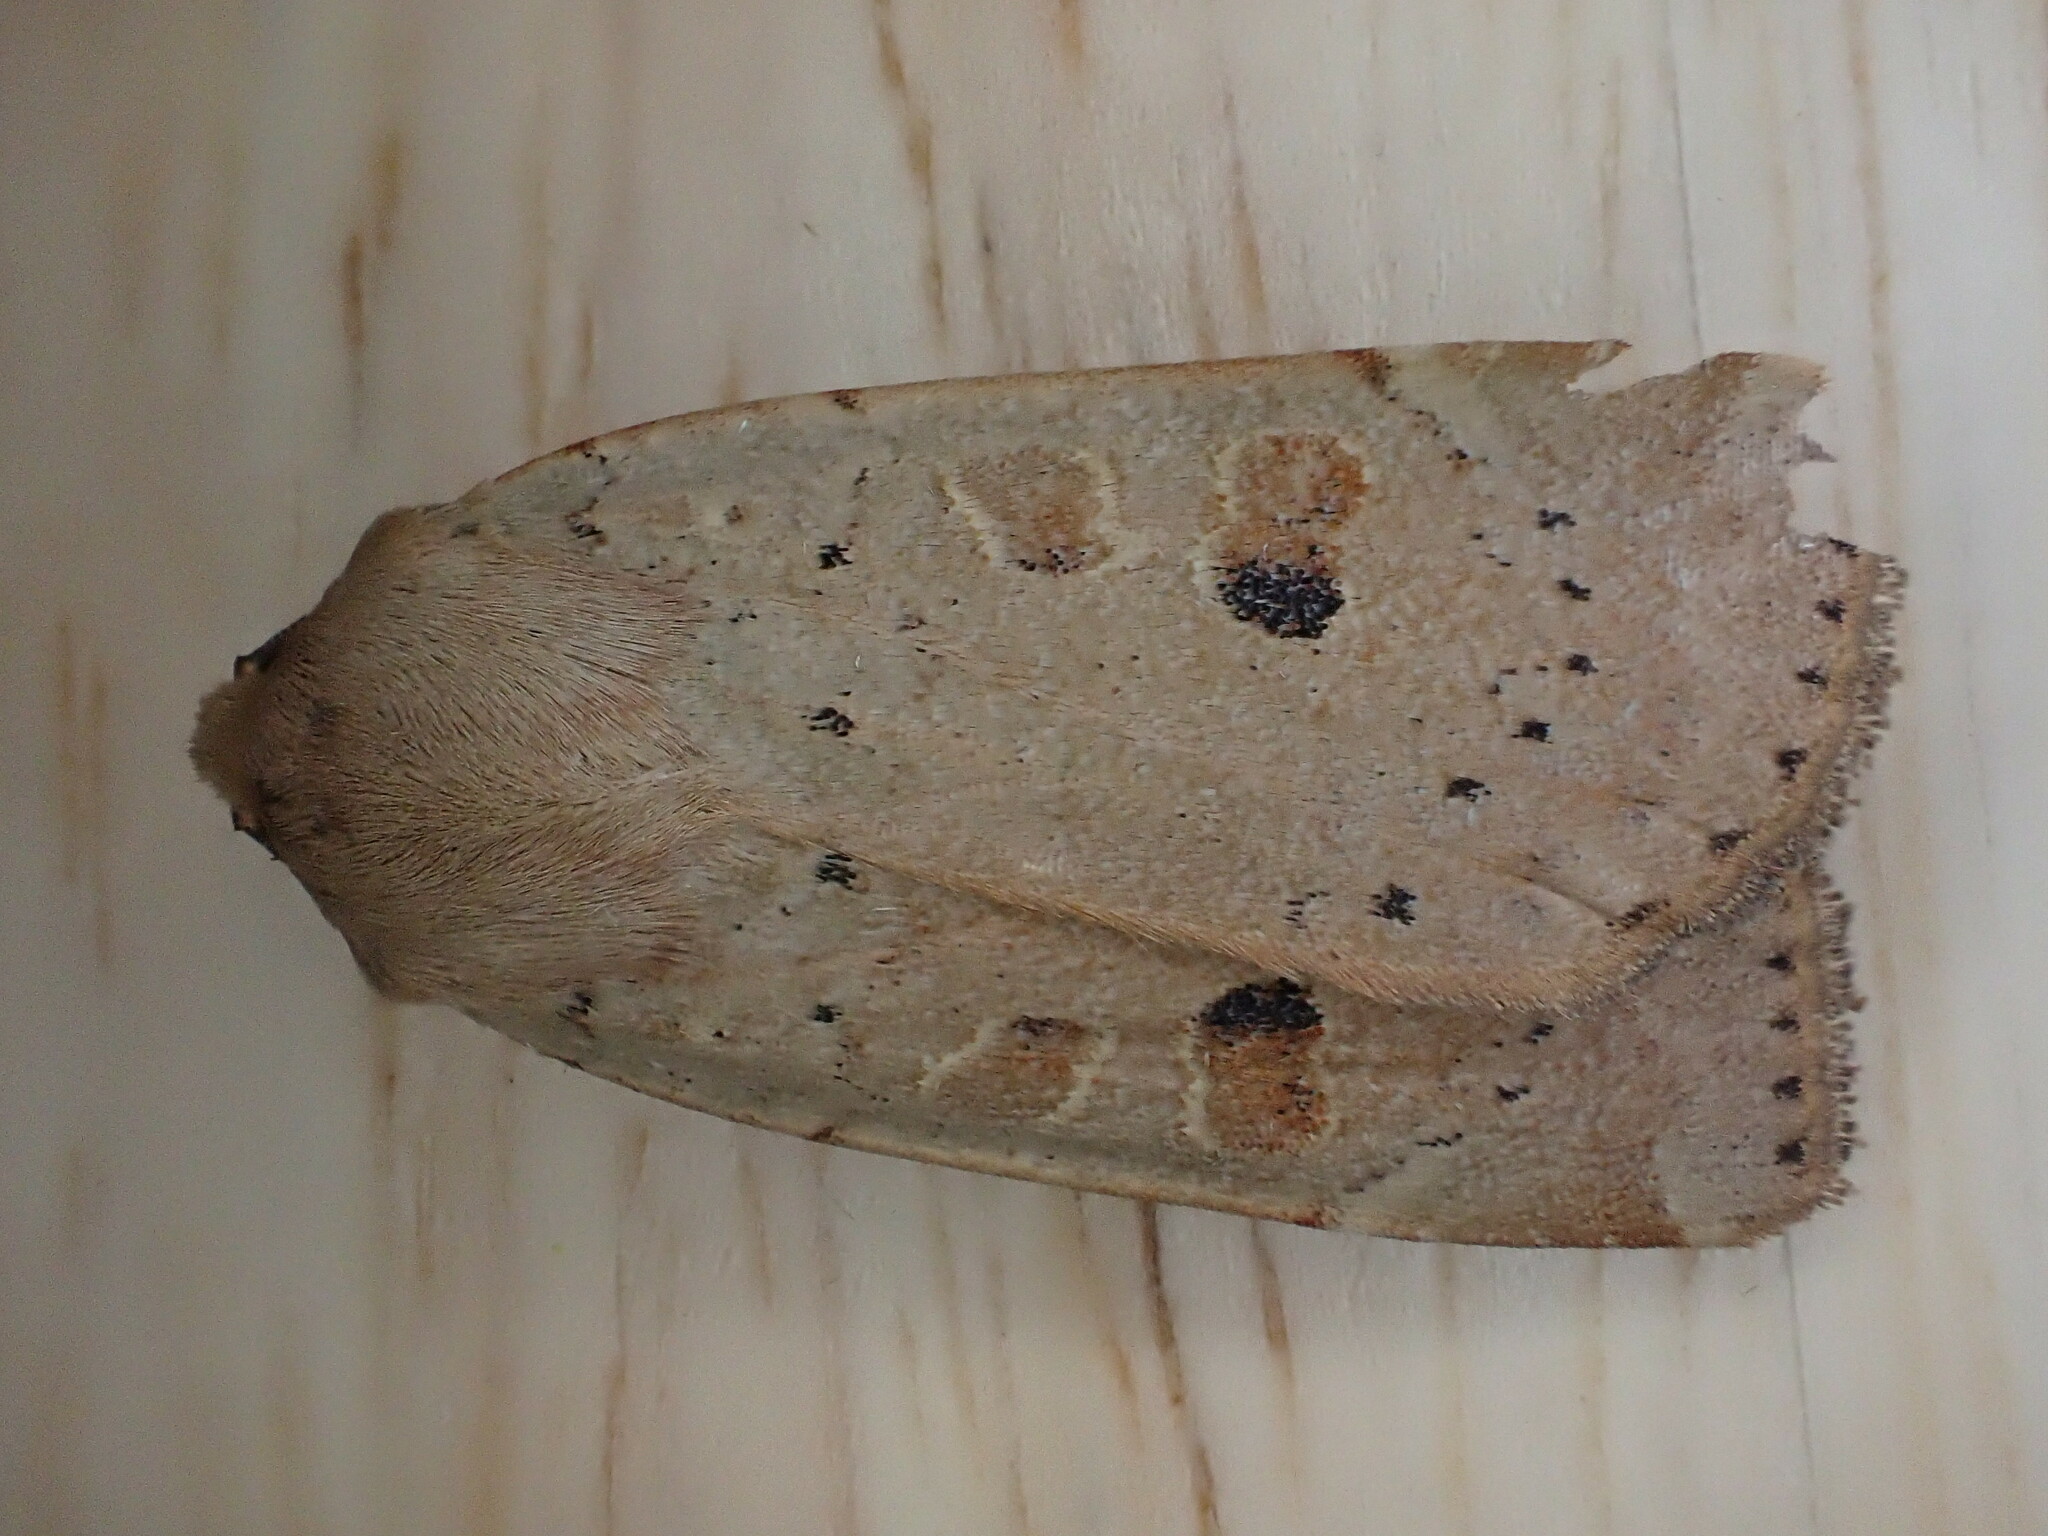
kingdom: Animalia
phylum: Arthropoda
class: Insecta
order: Lepidoptera
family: Noctuidae
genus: Noctua
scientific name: Noctua comes
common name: Lesser yellow underwing
